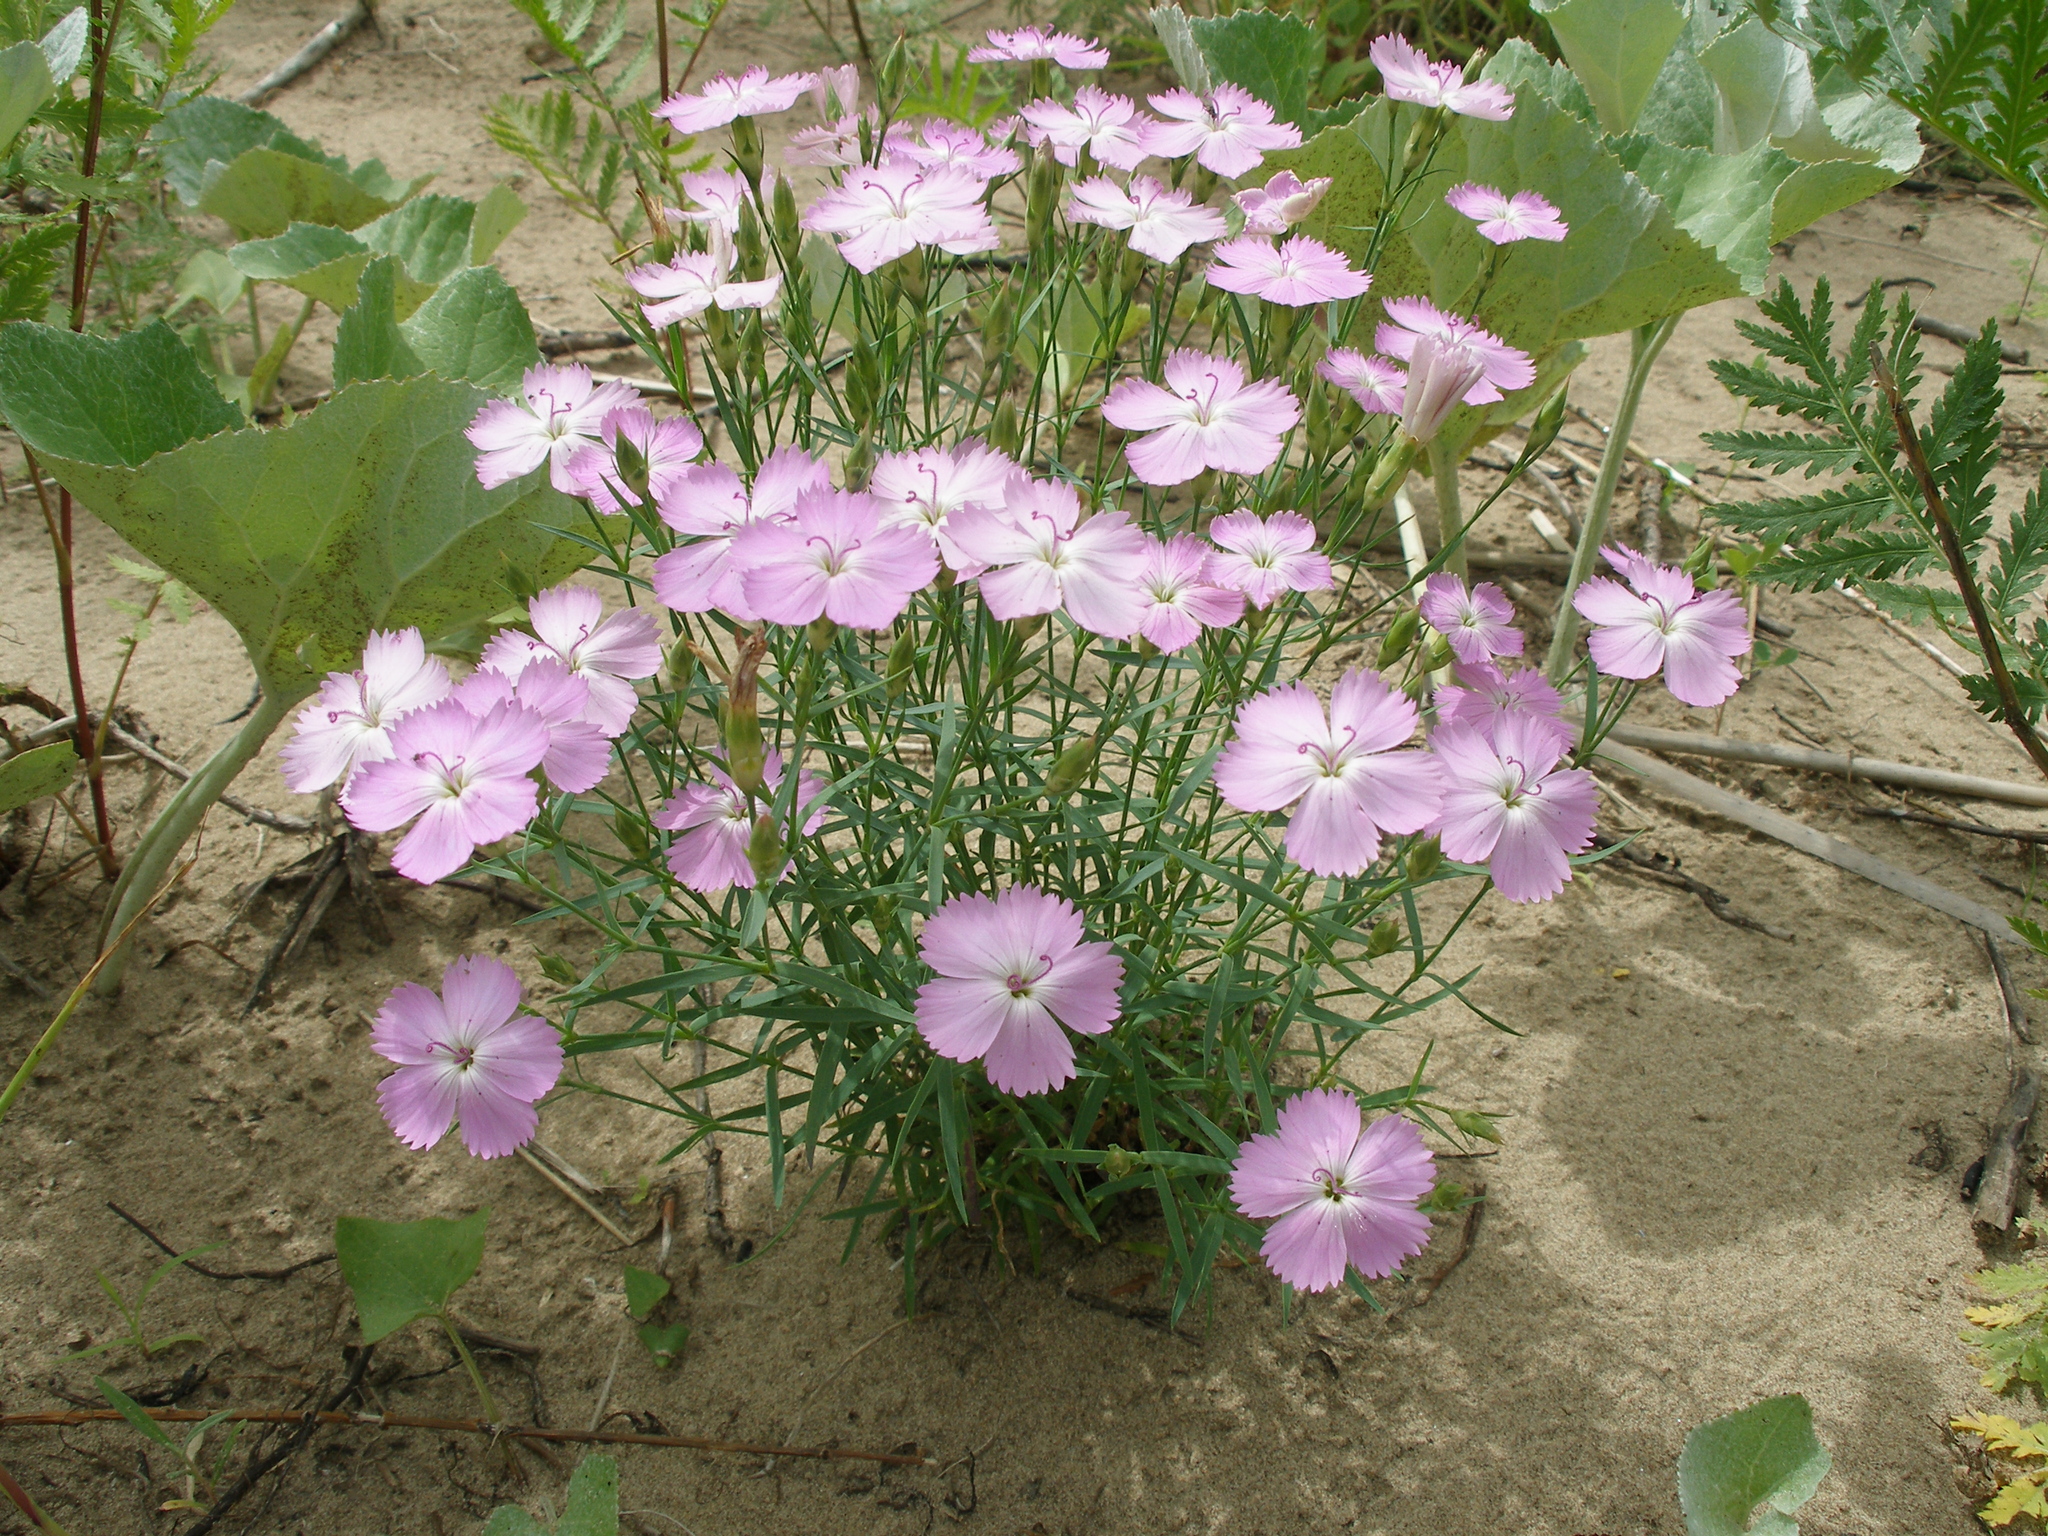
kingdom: Plantae
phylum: Tracheophyta
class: Magnoliopsida
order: Caryophyllales
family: Caryophyllaceae
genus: Dianthus
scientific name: Dianthus chinensis
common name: Rainbow pink
